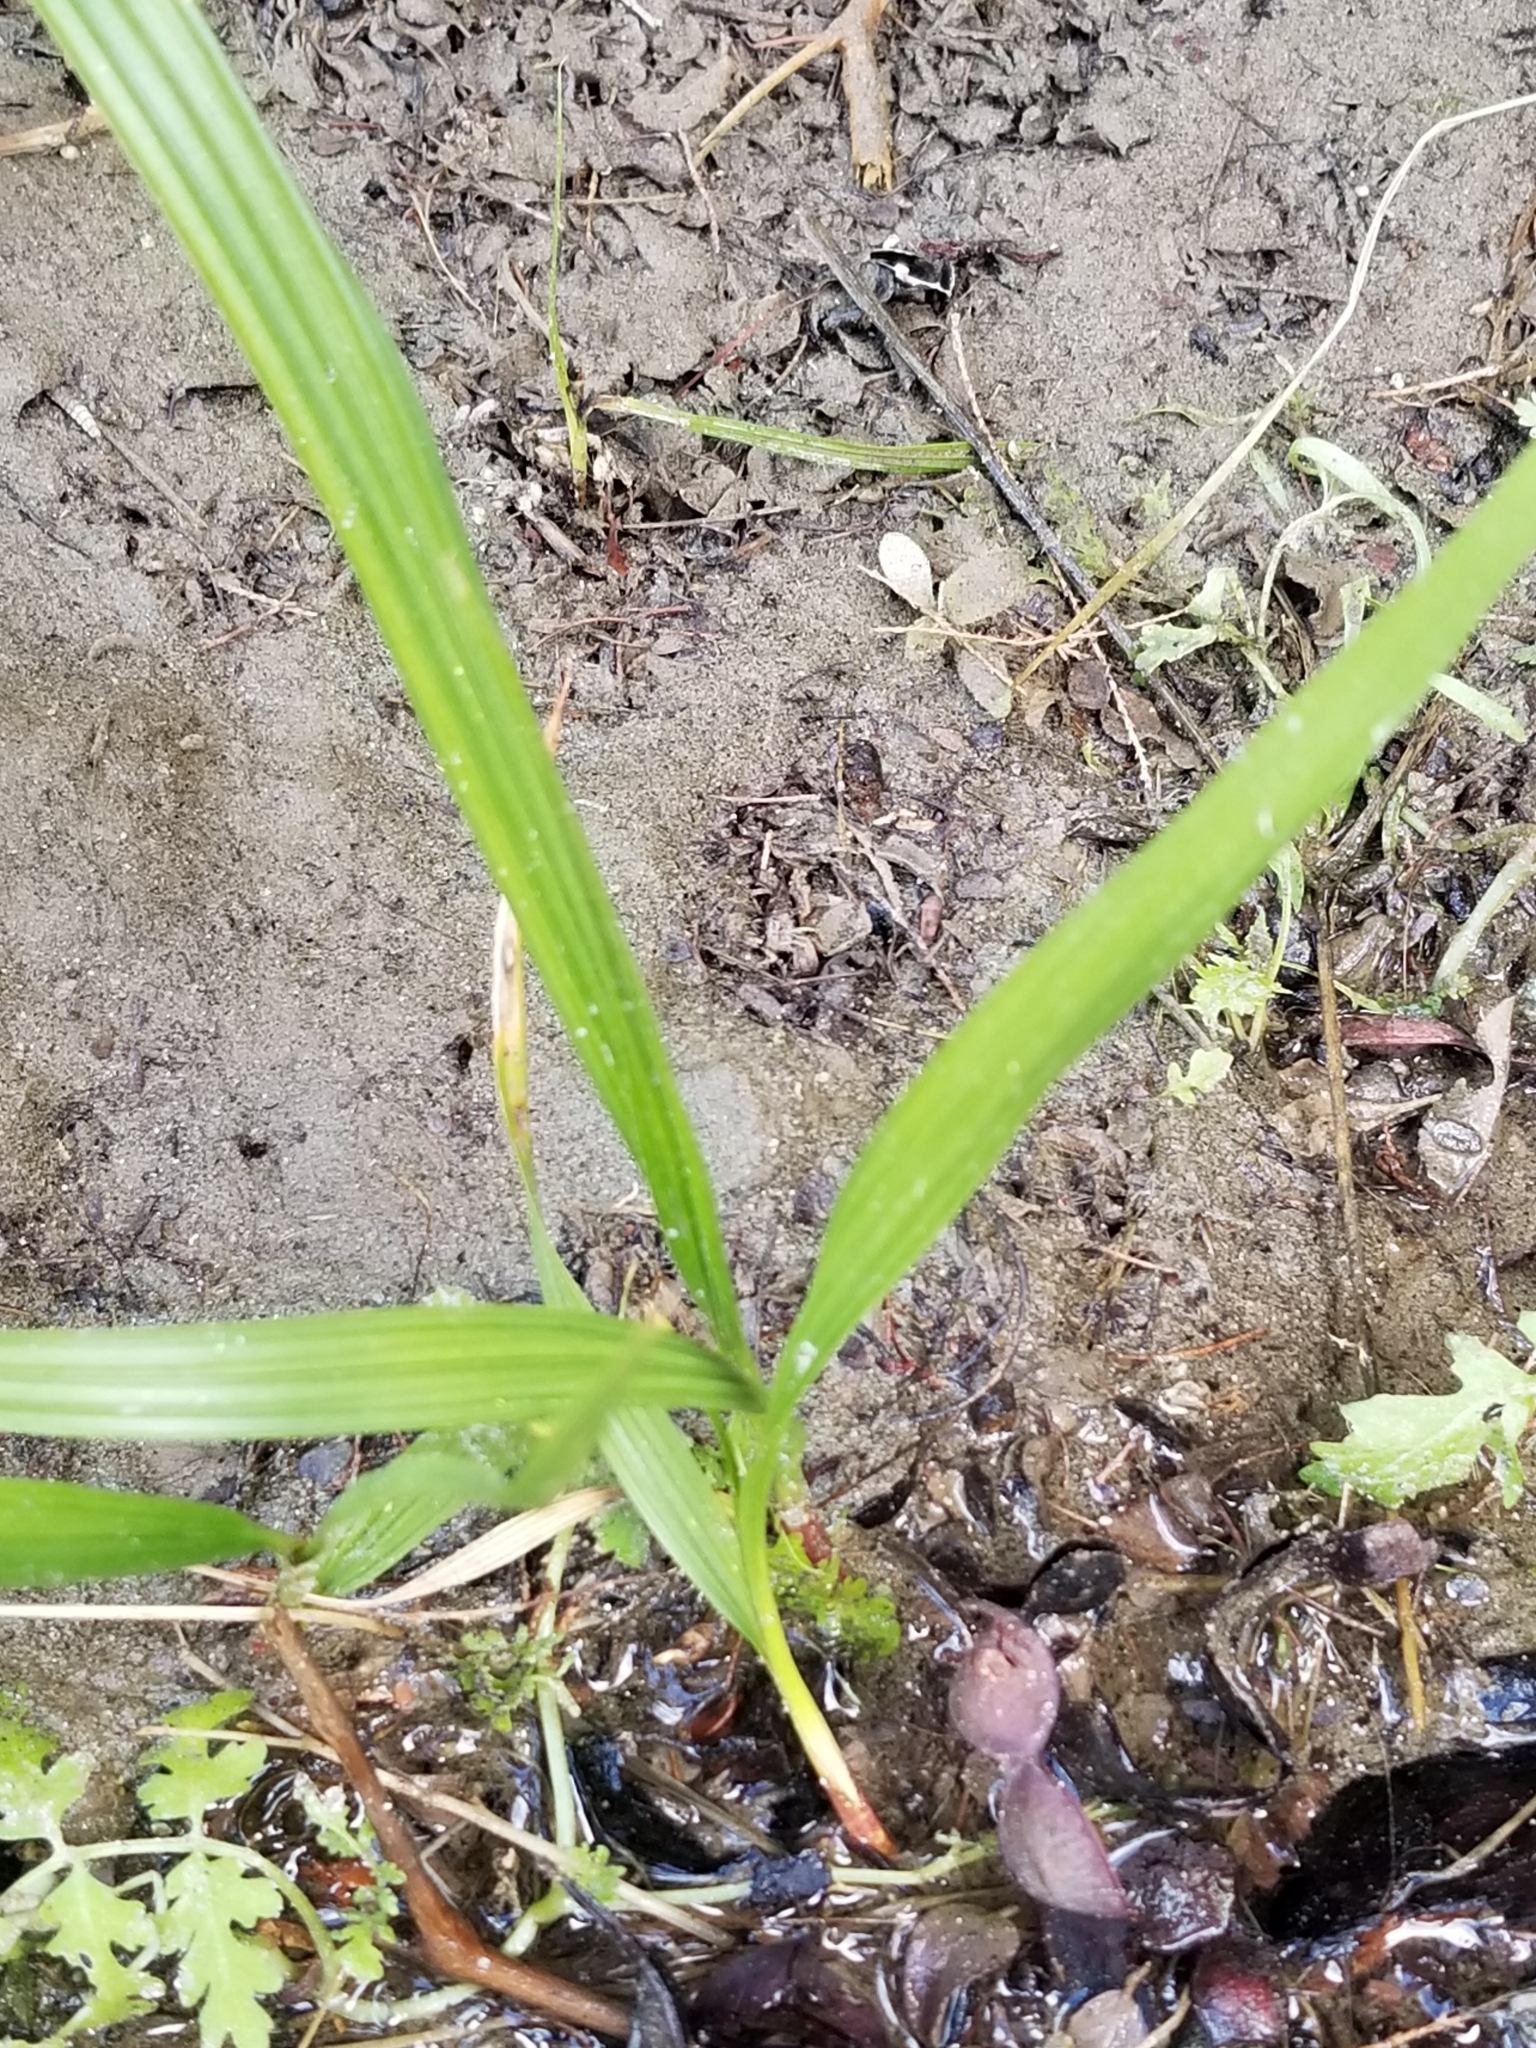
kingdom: Plantae
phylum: Tracheophyta
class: Liliopsida
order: Arecales
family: Arecaceae
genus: Washingtonia
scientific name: Washingtonia filifera
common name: California fan palm
